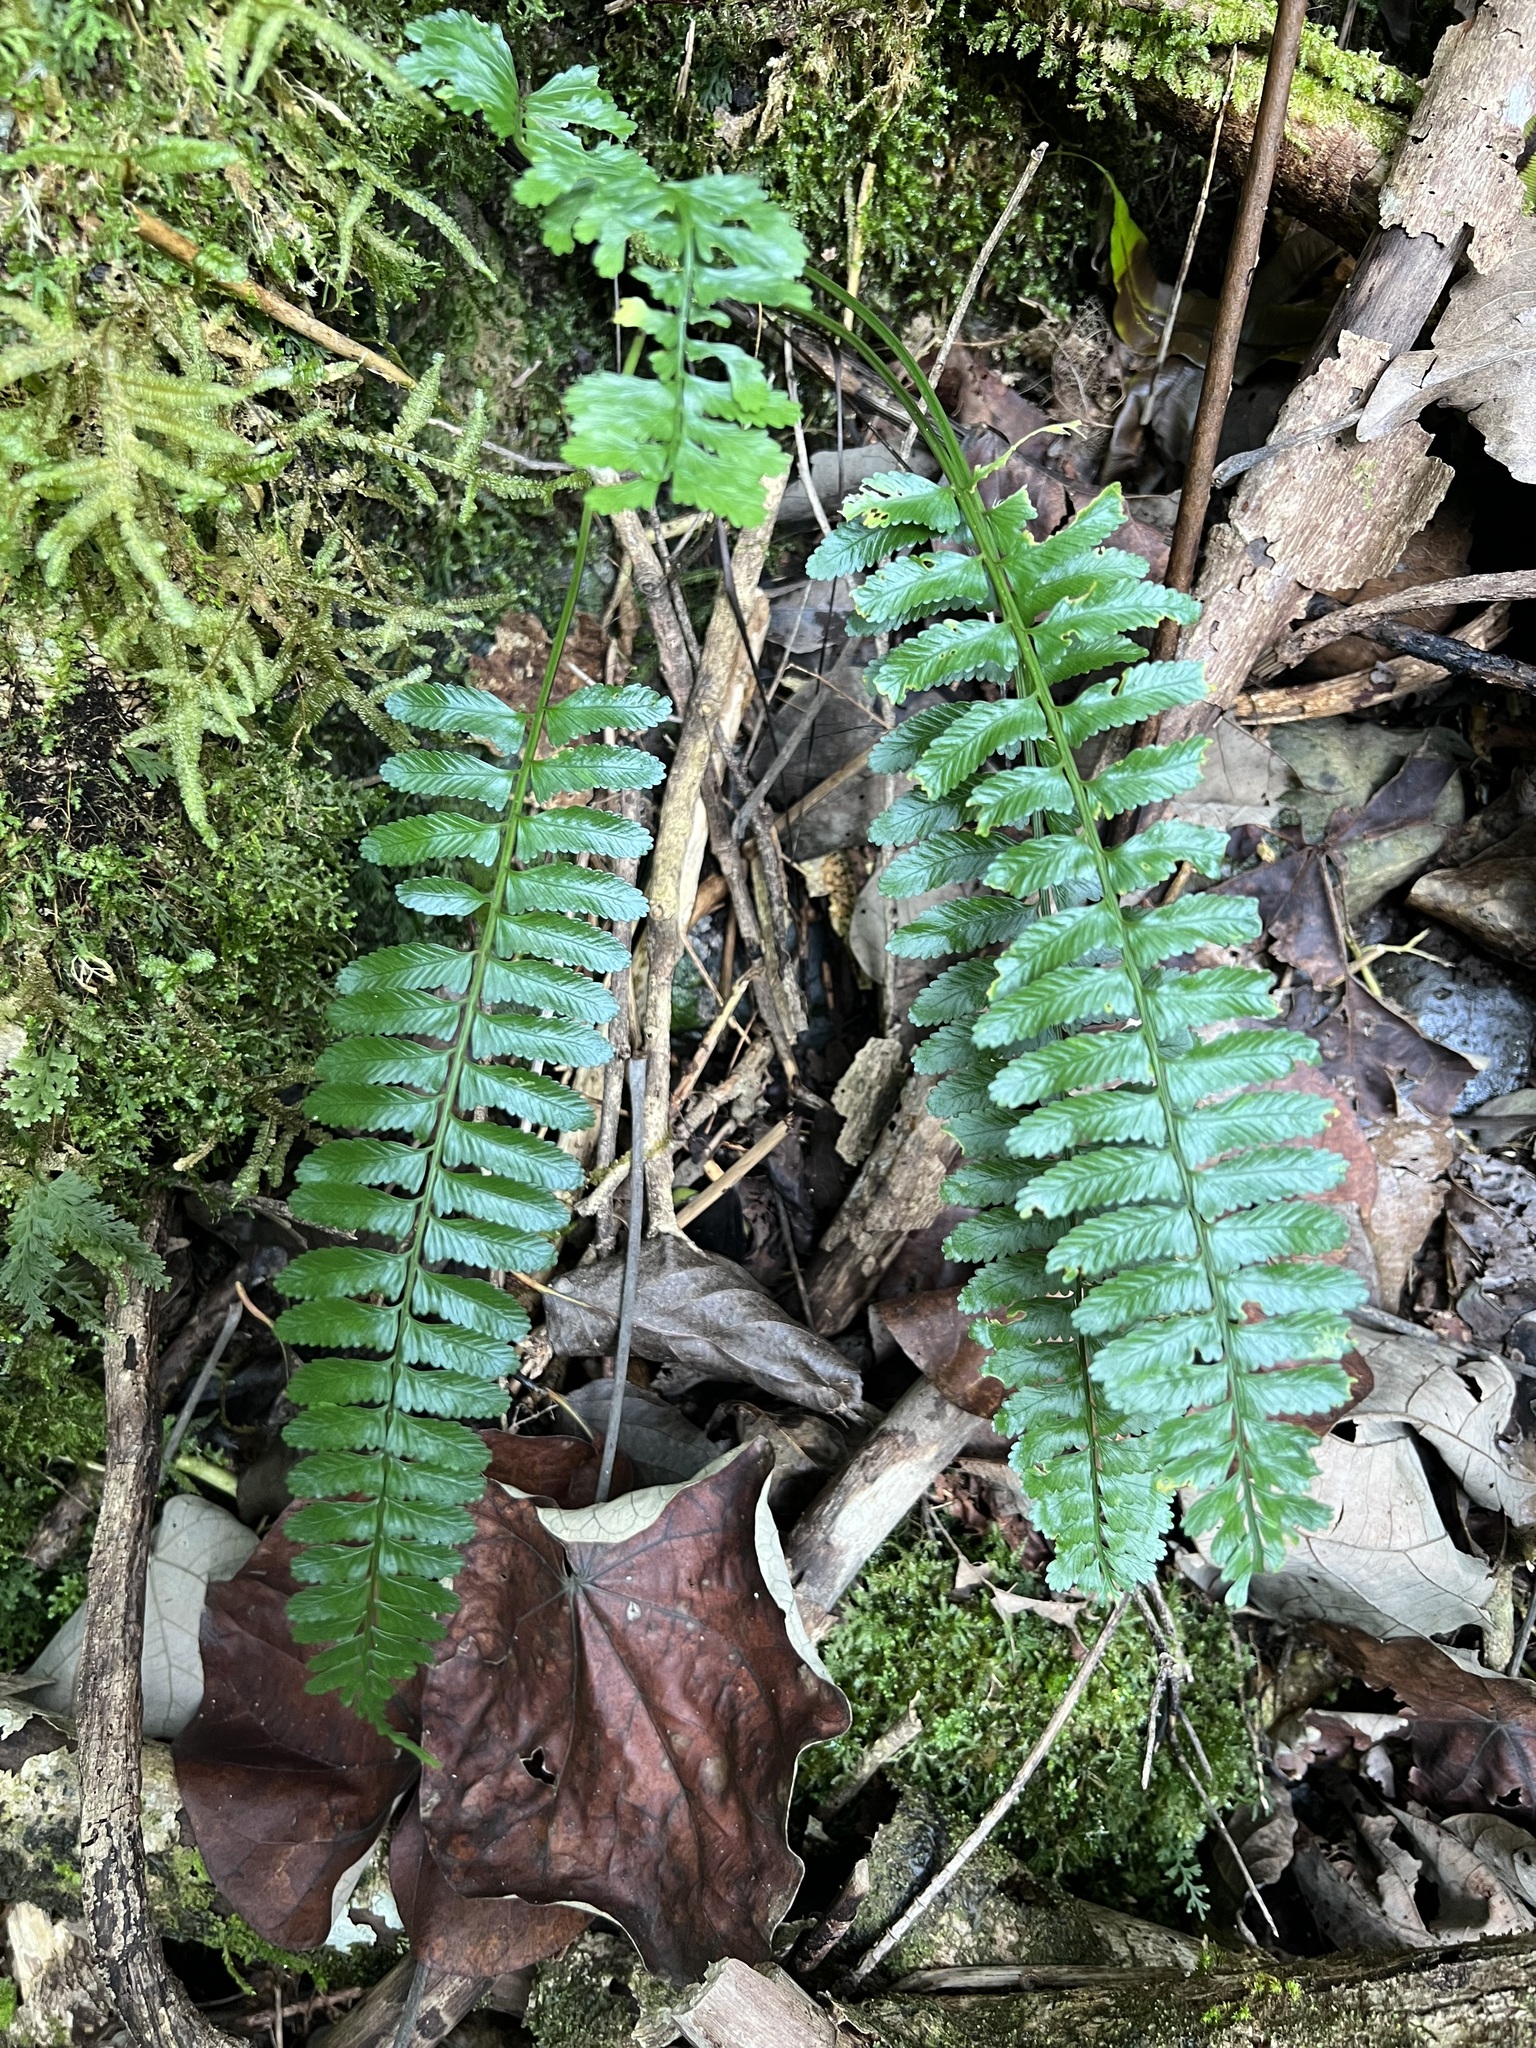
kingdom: Plantae
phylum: Tracheophyta
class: Polypodiopsida
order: Polypodiales
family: Aspleniaceae
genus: Asplenium
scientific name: Asplenium tenerum
